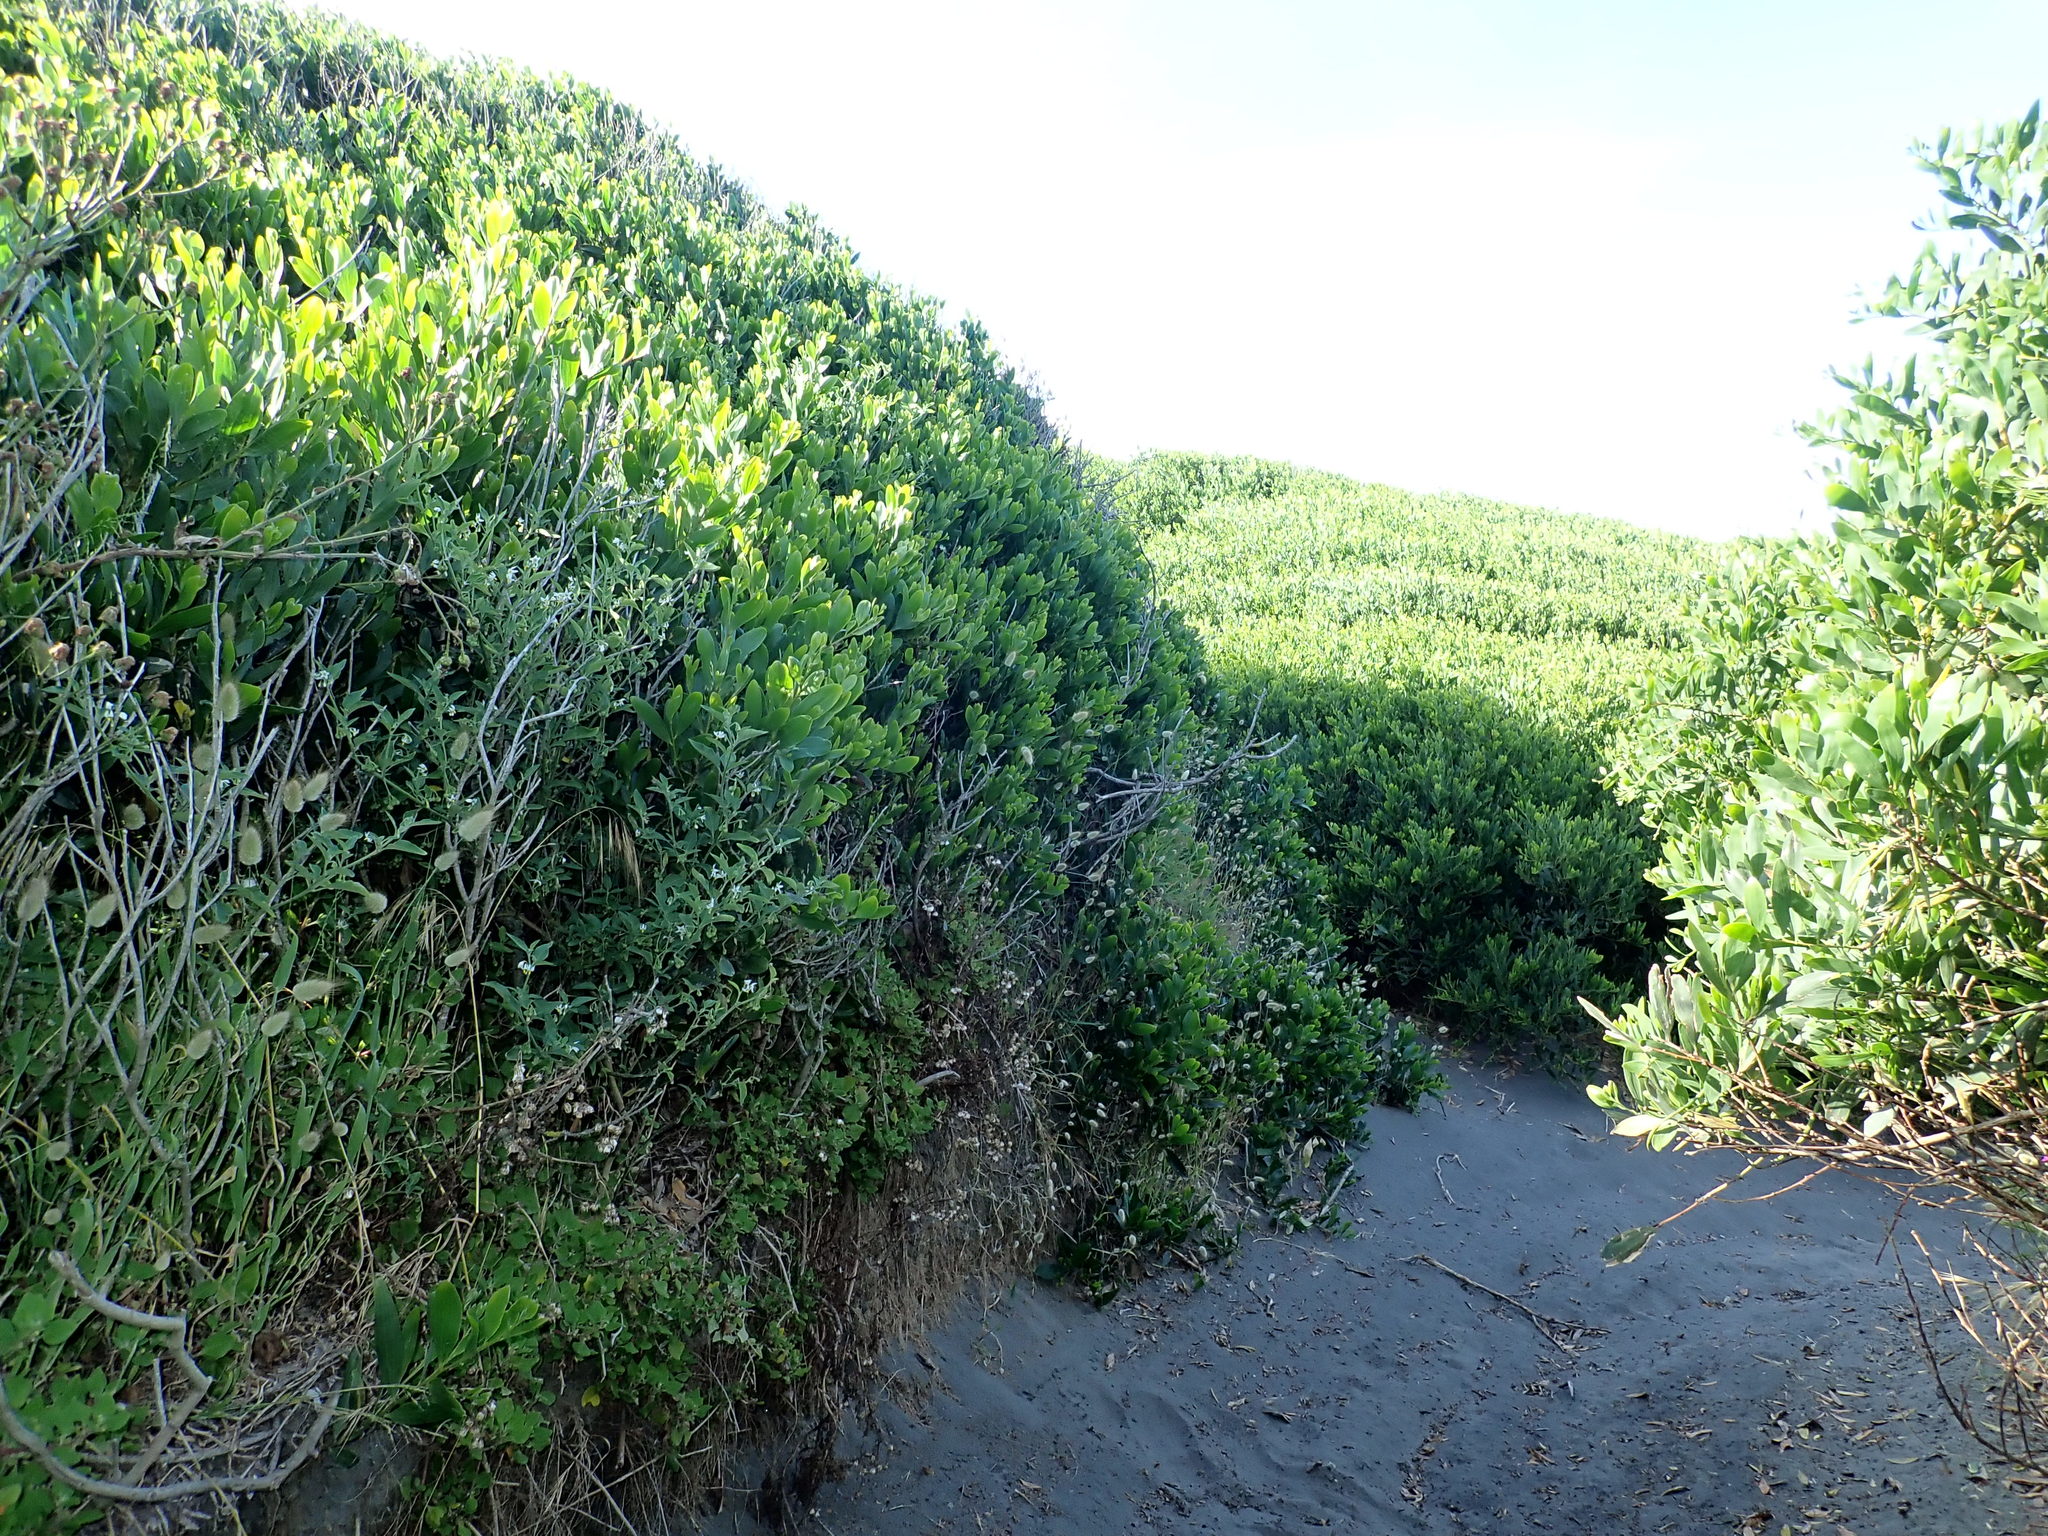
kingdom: Plantae
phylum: Tracheophyta
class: Magnoliopsida
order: Caryophyllales
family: Aizoaceae
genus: Tetragonia
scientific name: Tetragonia implexicoma
